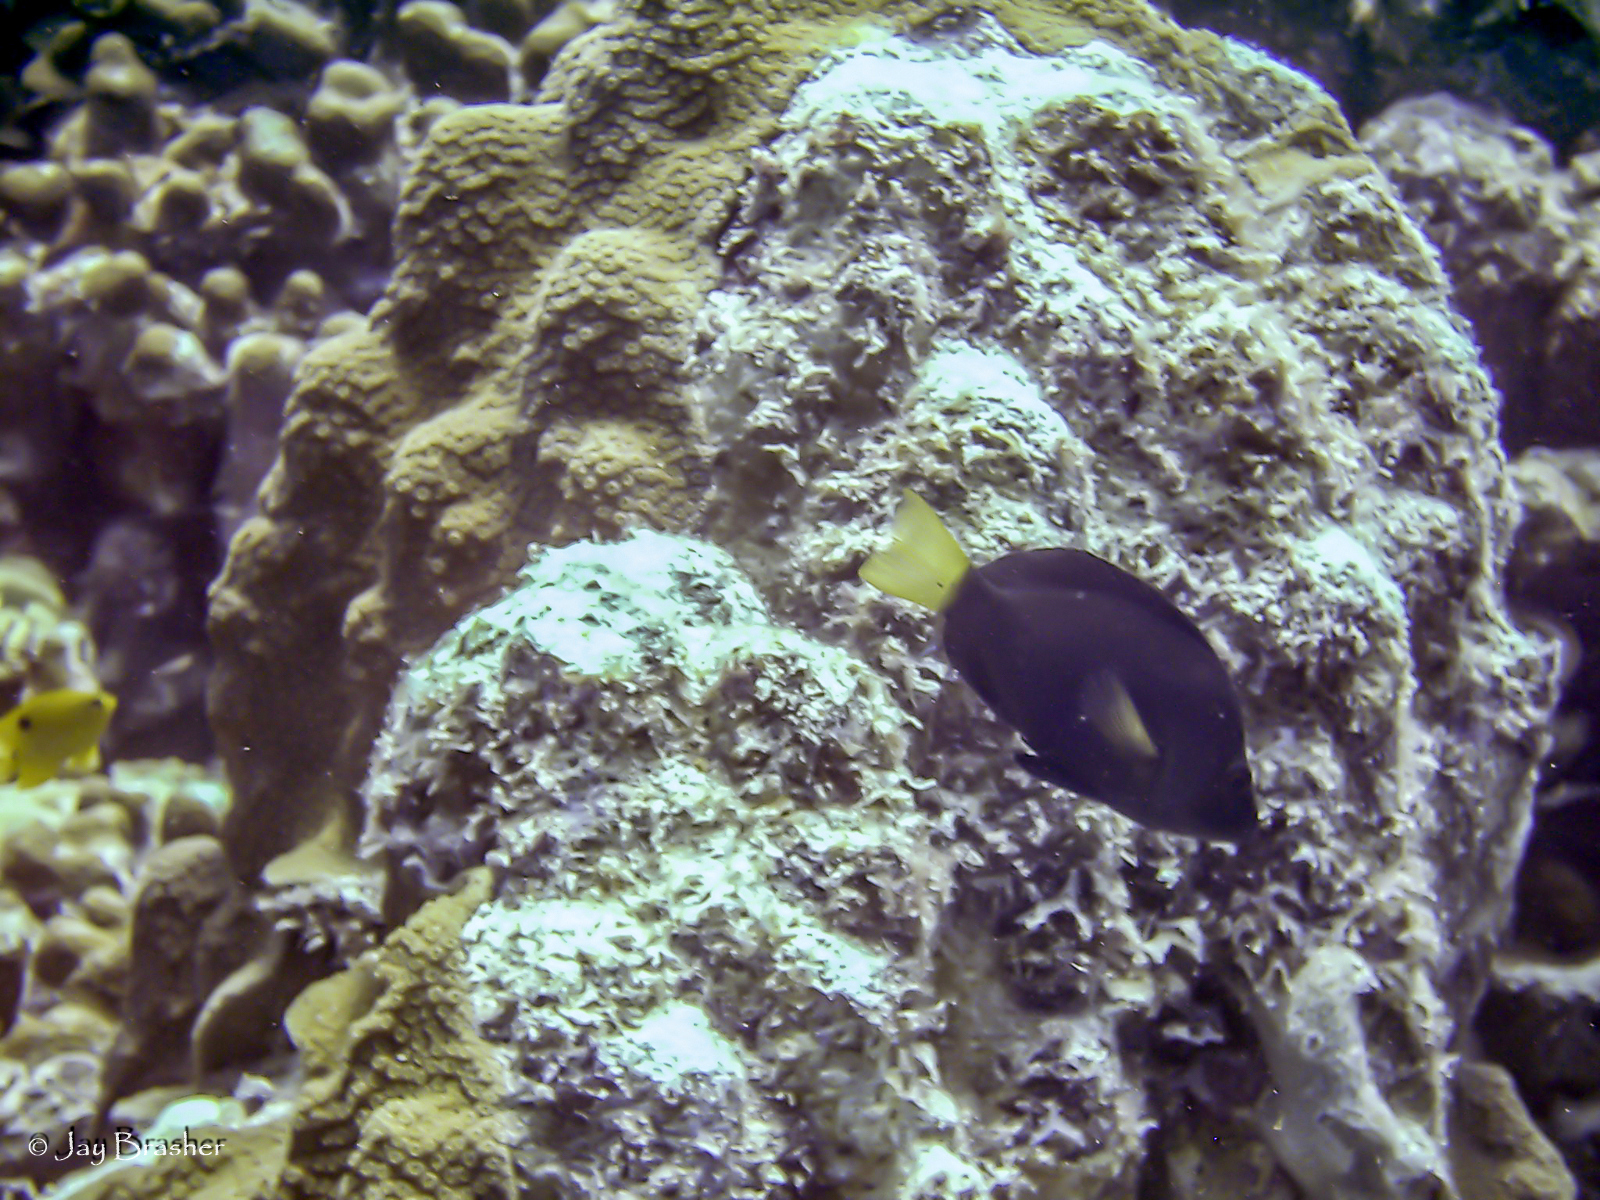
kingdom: Animalia
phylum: Chordata
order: Perciformes
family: Serranidae
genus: Hypoplectrus
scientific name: Hypoplectrus chlorurus
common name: Yellowtail hamlet
